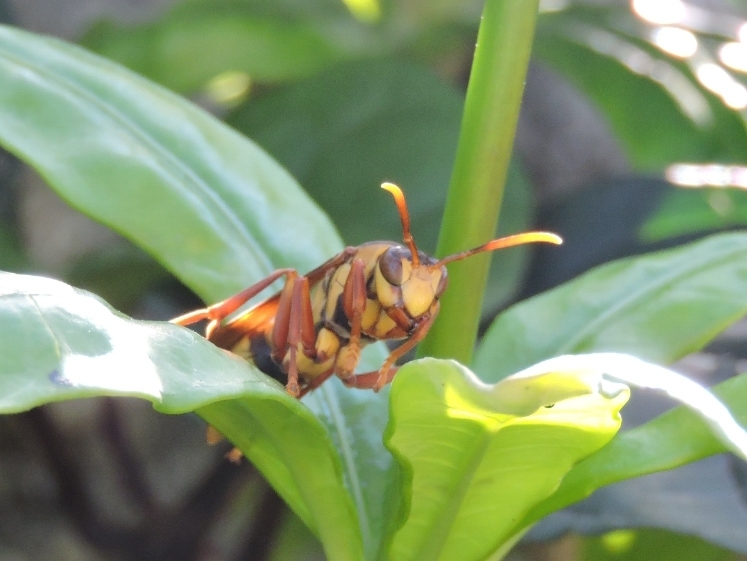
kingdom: Animalia
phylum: Arthropoda
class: Insecta
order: Hymenoptera
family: Eumenidae
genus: Polistes
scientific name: Polistes carnifex
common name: Paper wasp
